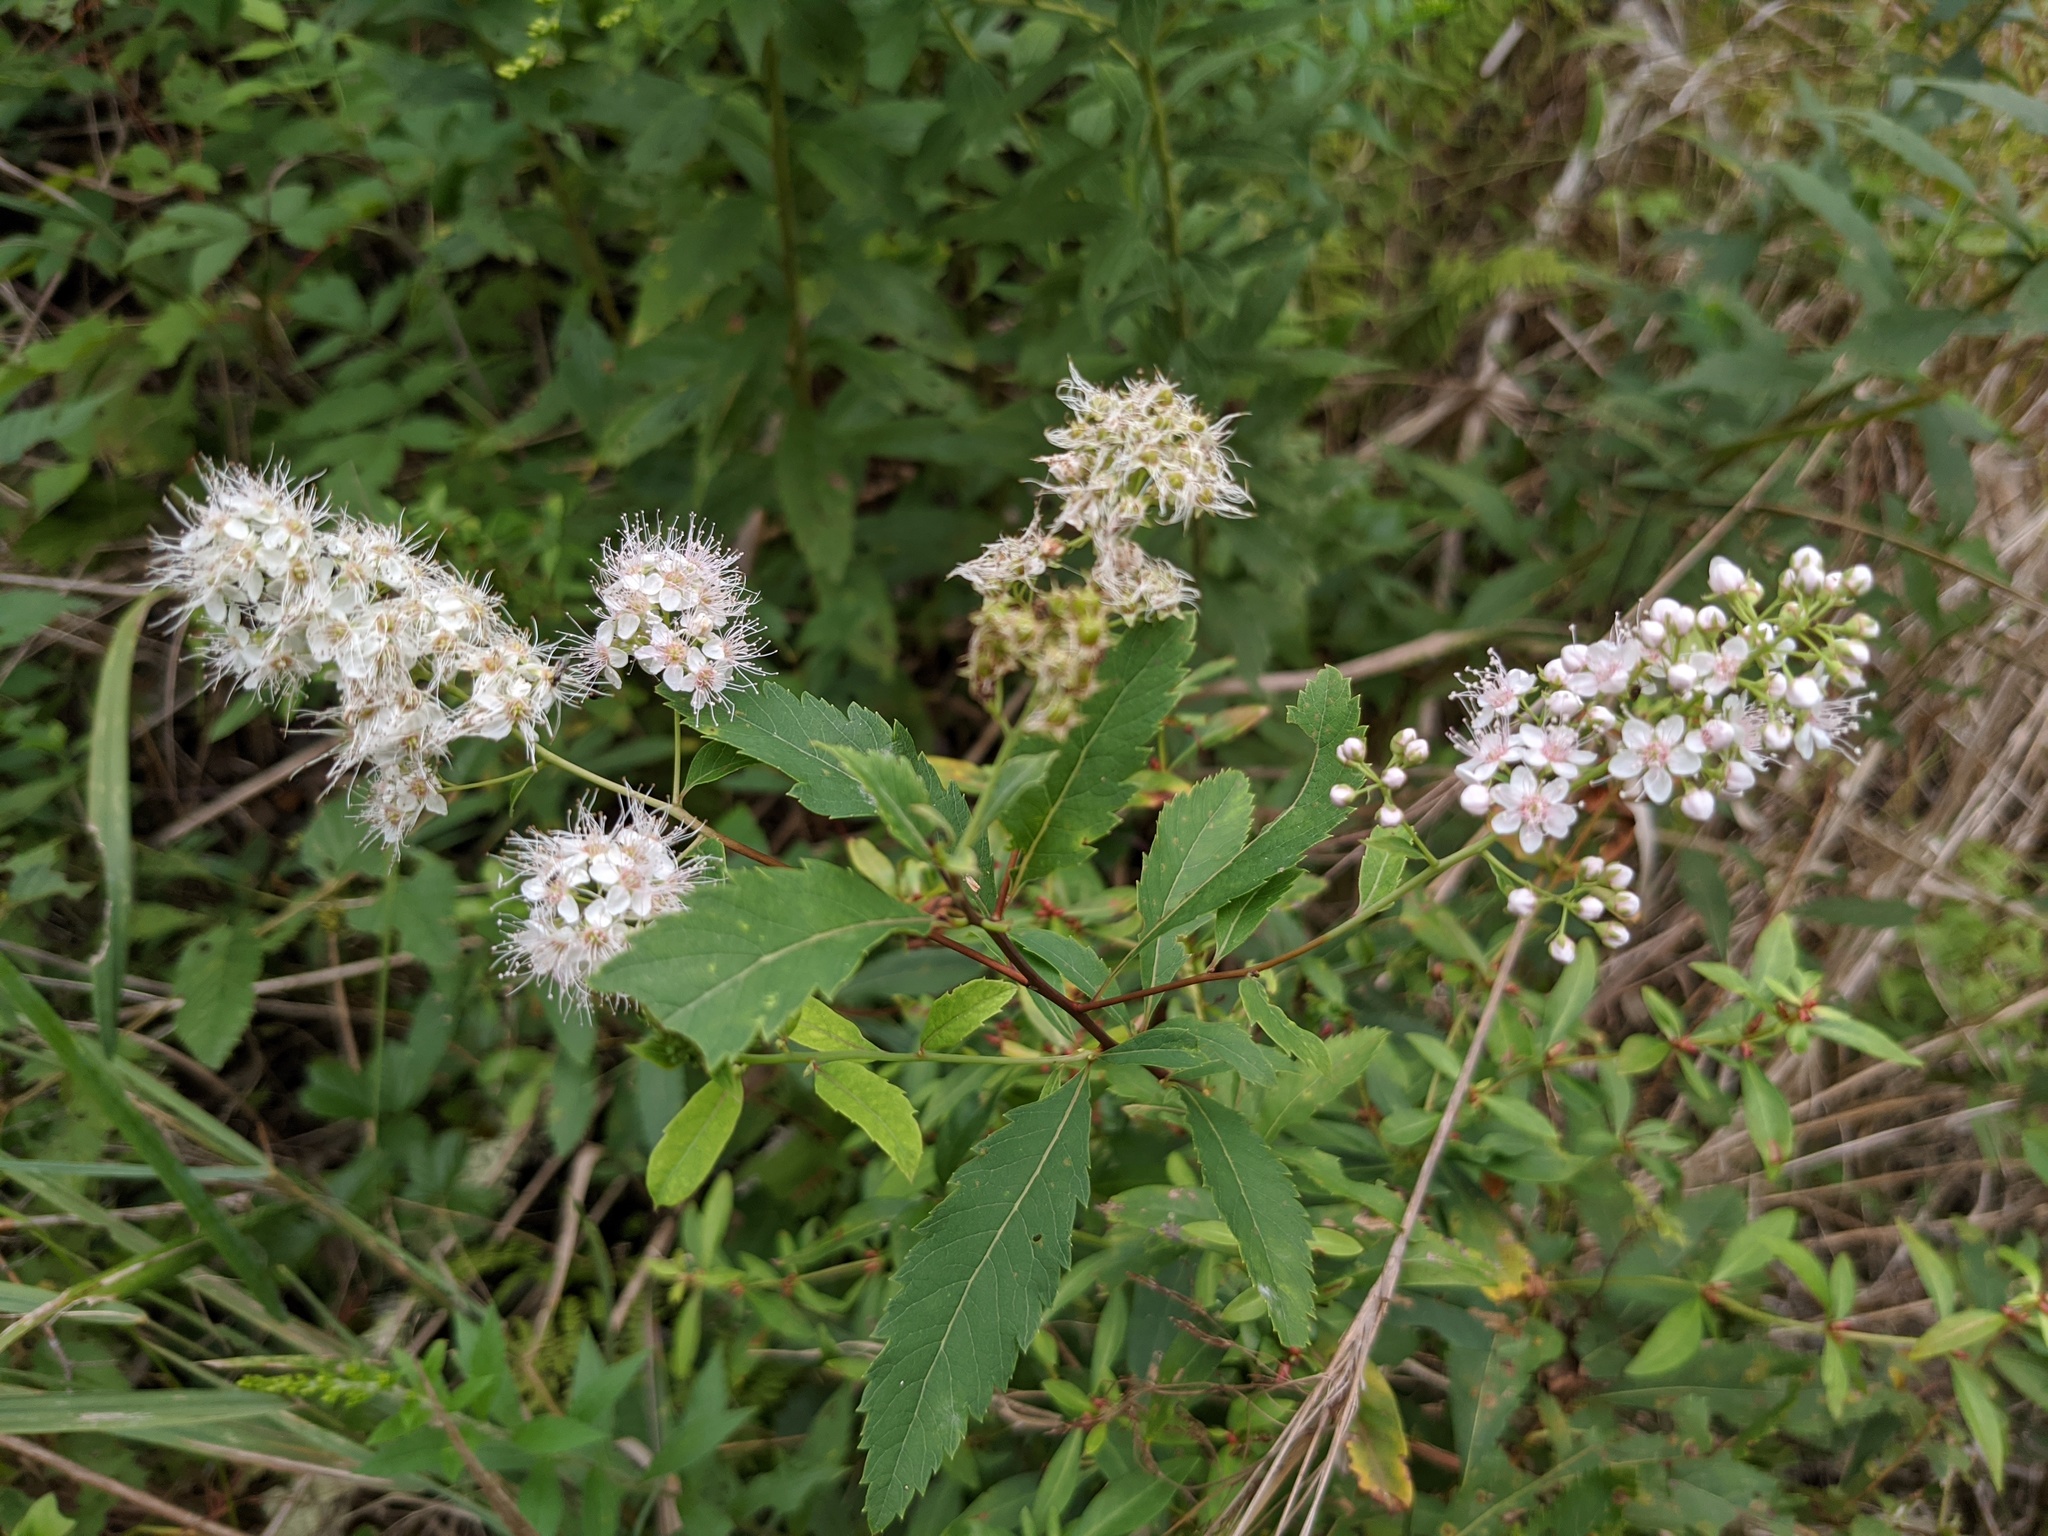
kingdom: Plantae
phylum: Tracheophyta
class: Magnoliopsida
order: Rosales
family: Rosaceae
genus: Spiraea
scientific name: Spiraea alba
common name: Pale bridewort
